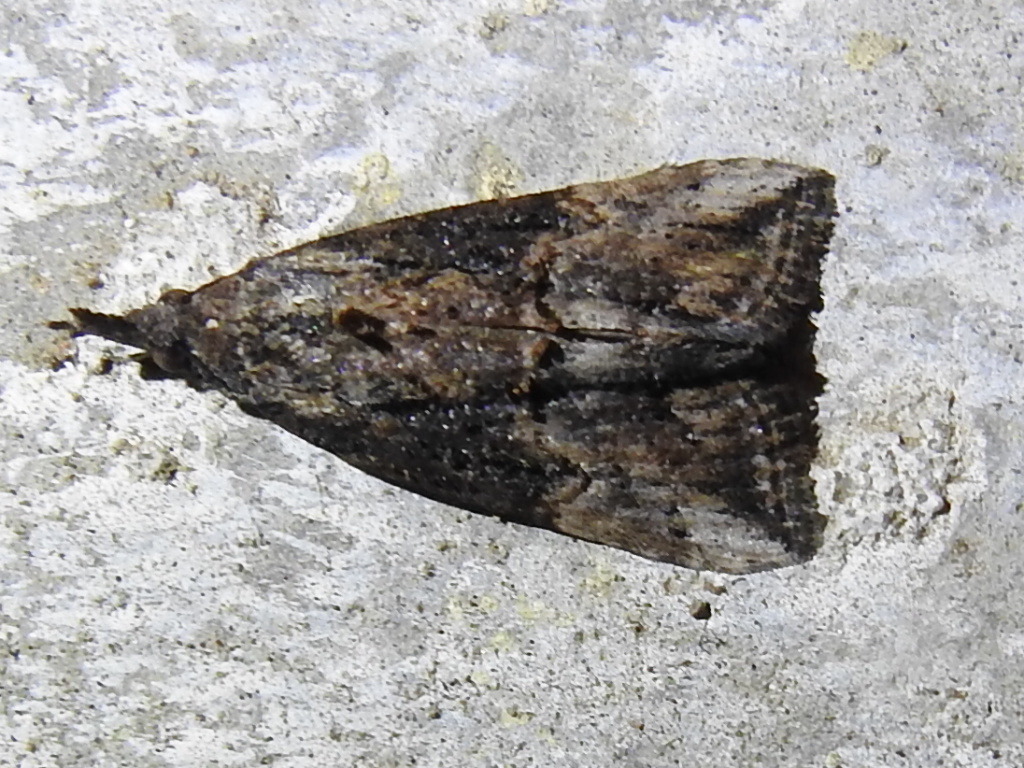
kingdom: Animalia
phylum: Arthropoda
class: Insecta
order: Lepidoptera
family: Erebidae
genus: Hypena
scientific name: Hypena scabra
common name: Green cloverworm
